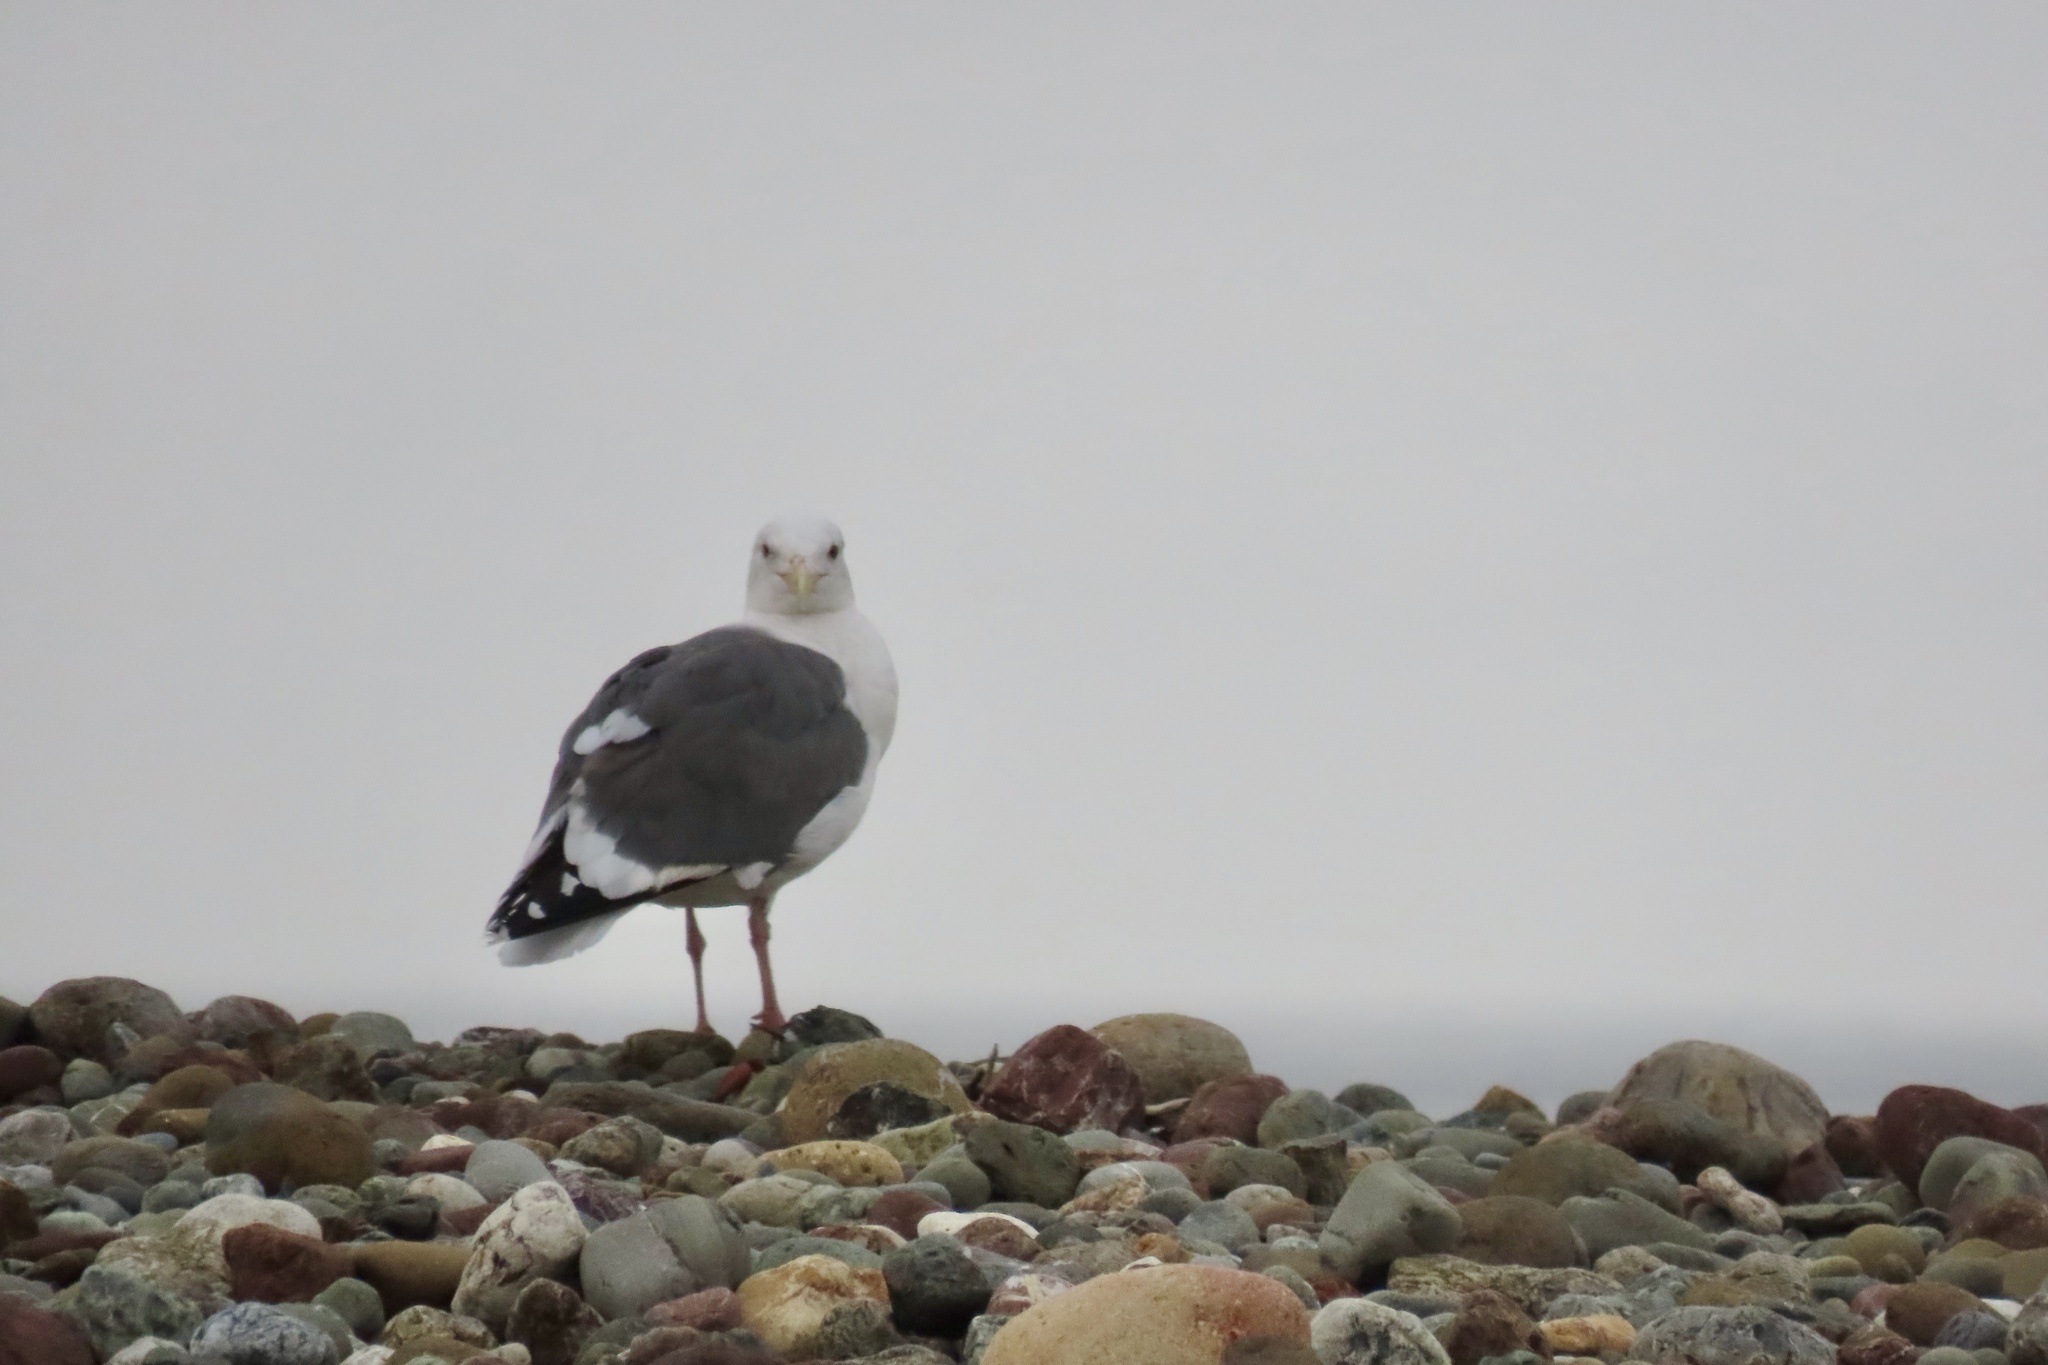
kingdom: Animalia
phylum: Chordata
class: Aves
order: Charadriiformes
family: Laridae
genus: Larus
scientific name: Larus occidentalis
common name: Western gull
